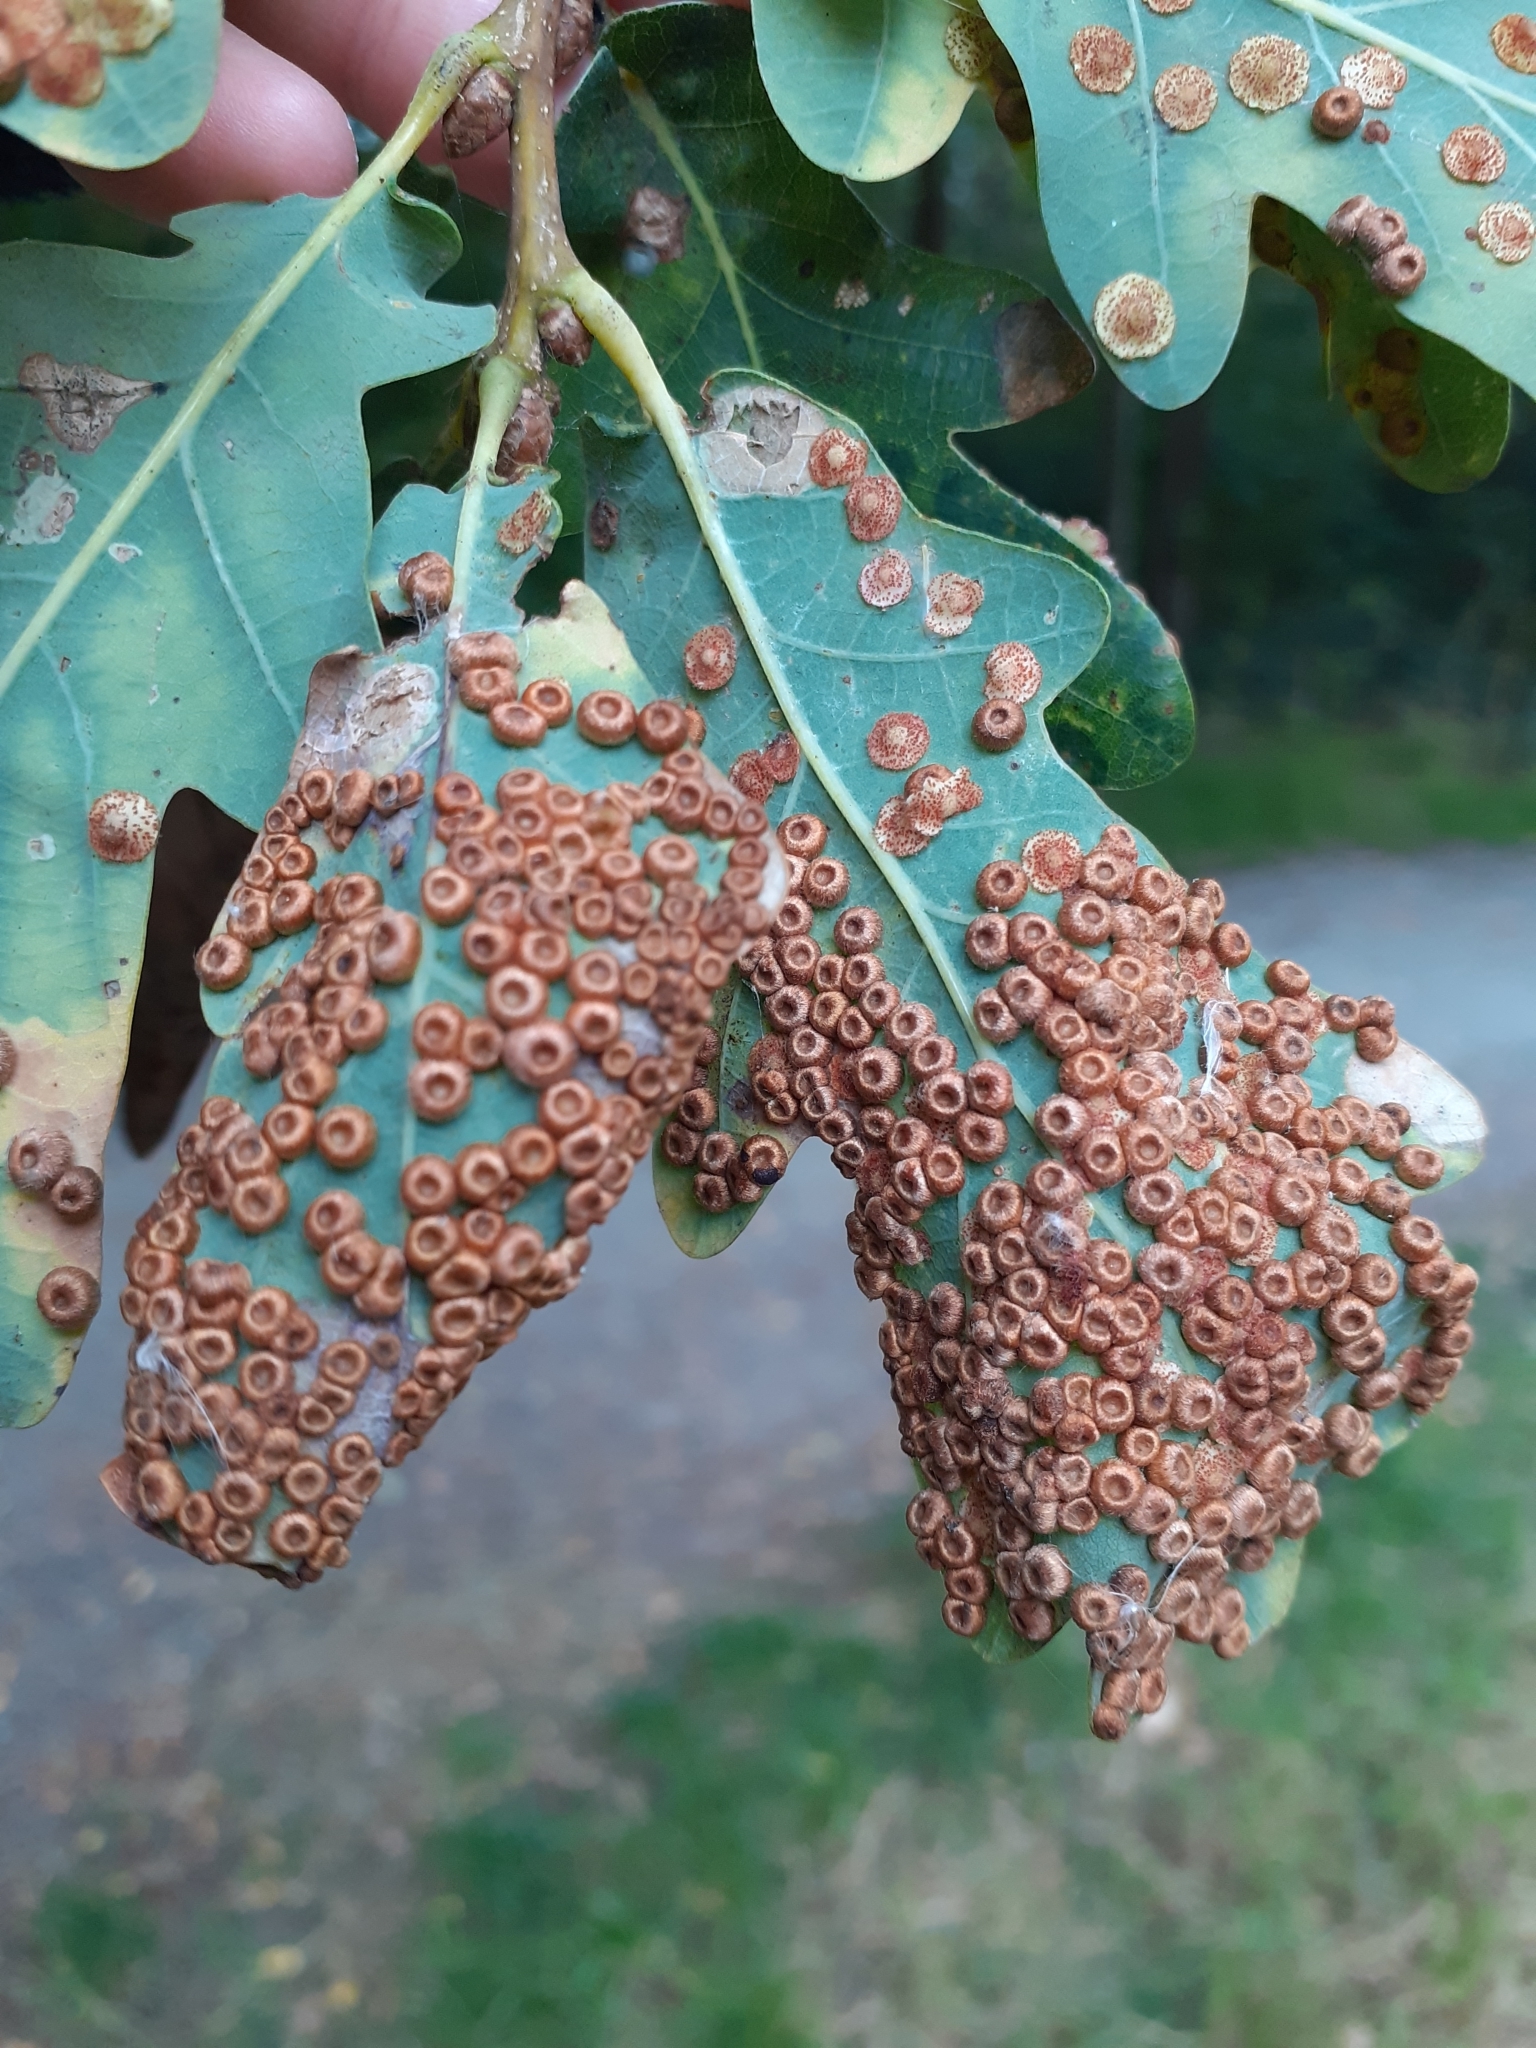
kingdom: Animalia
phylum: Arthropoda
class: Insecta
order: Hymenoptera
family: Cynipidae
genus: Neuroterus
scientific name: Neuroterus numismalis
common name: Silk-button spangle gall
